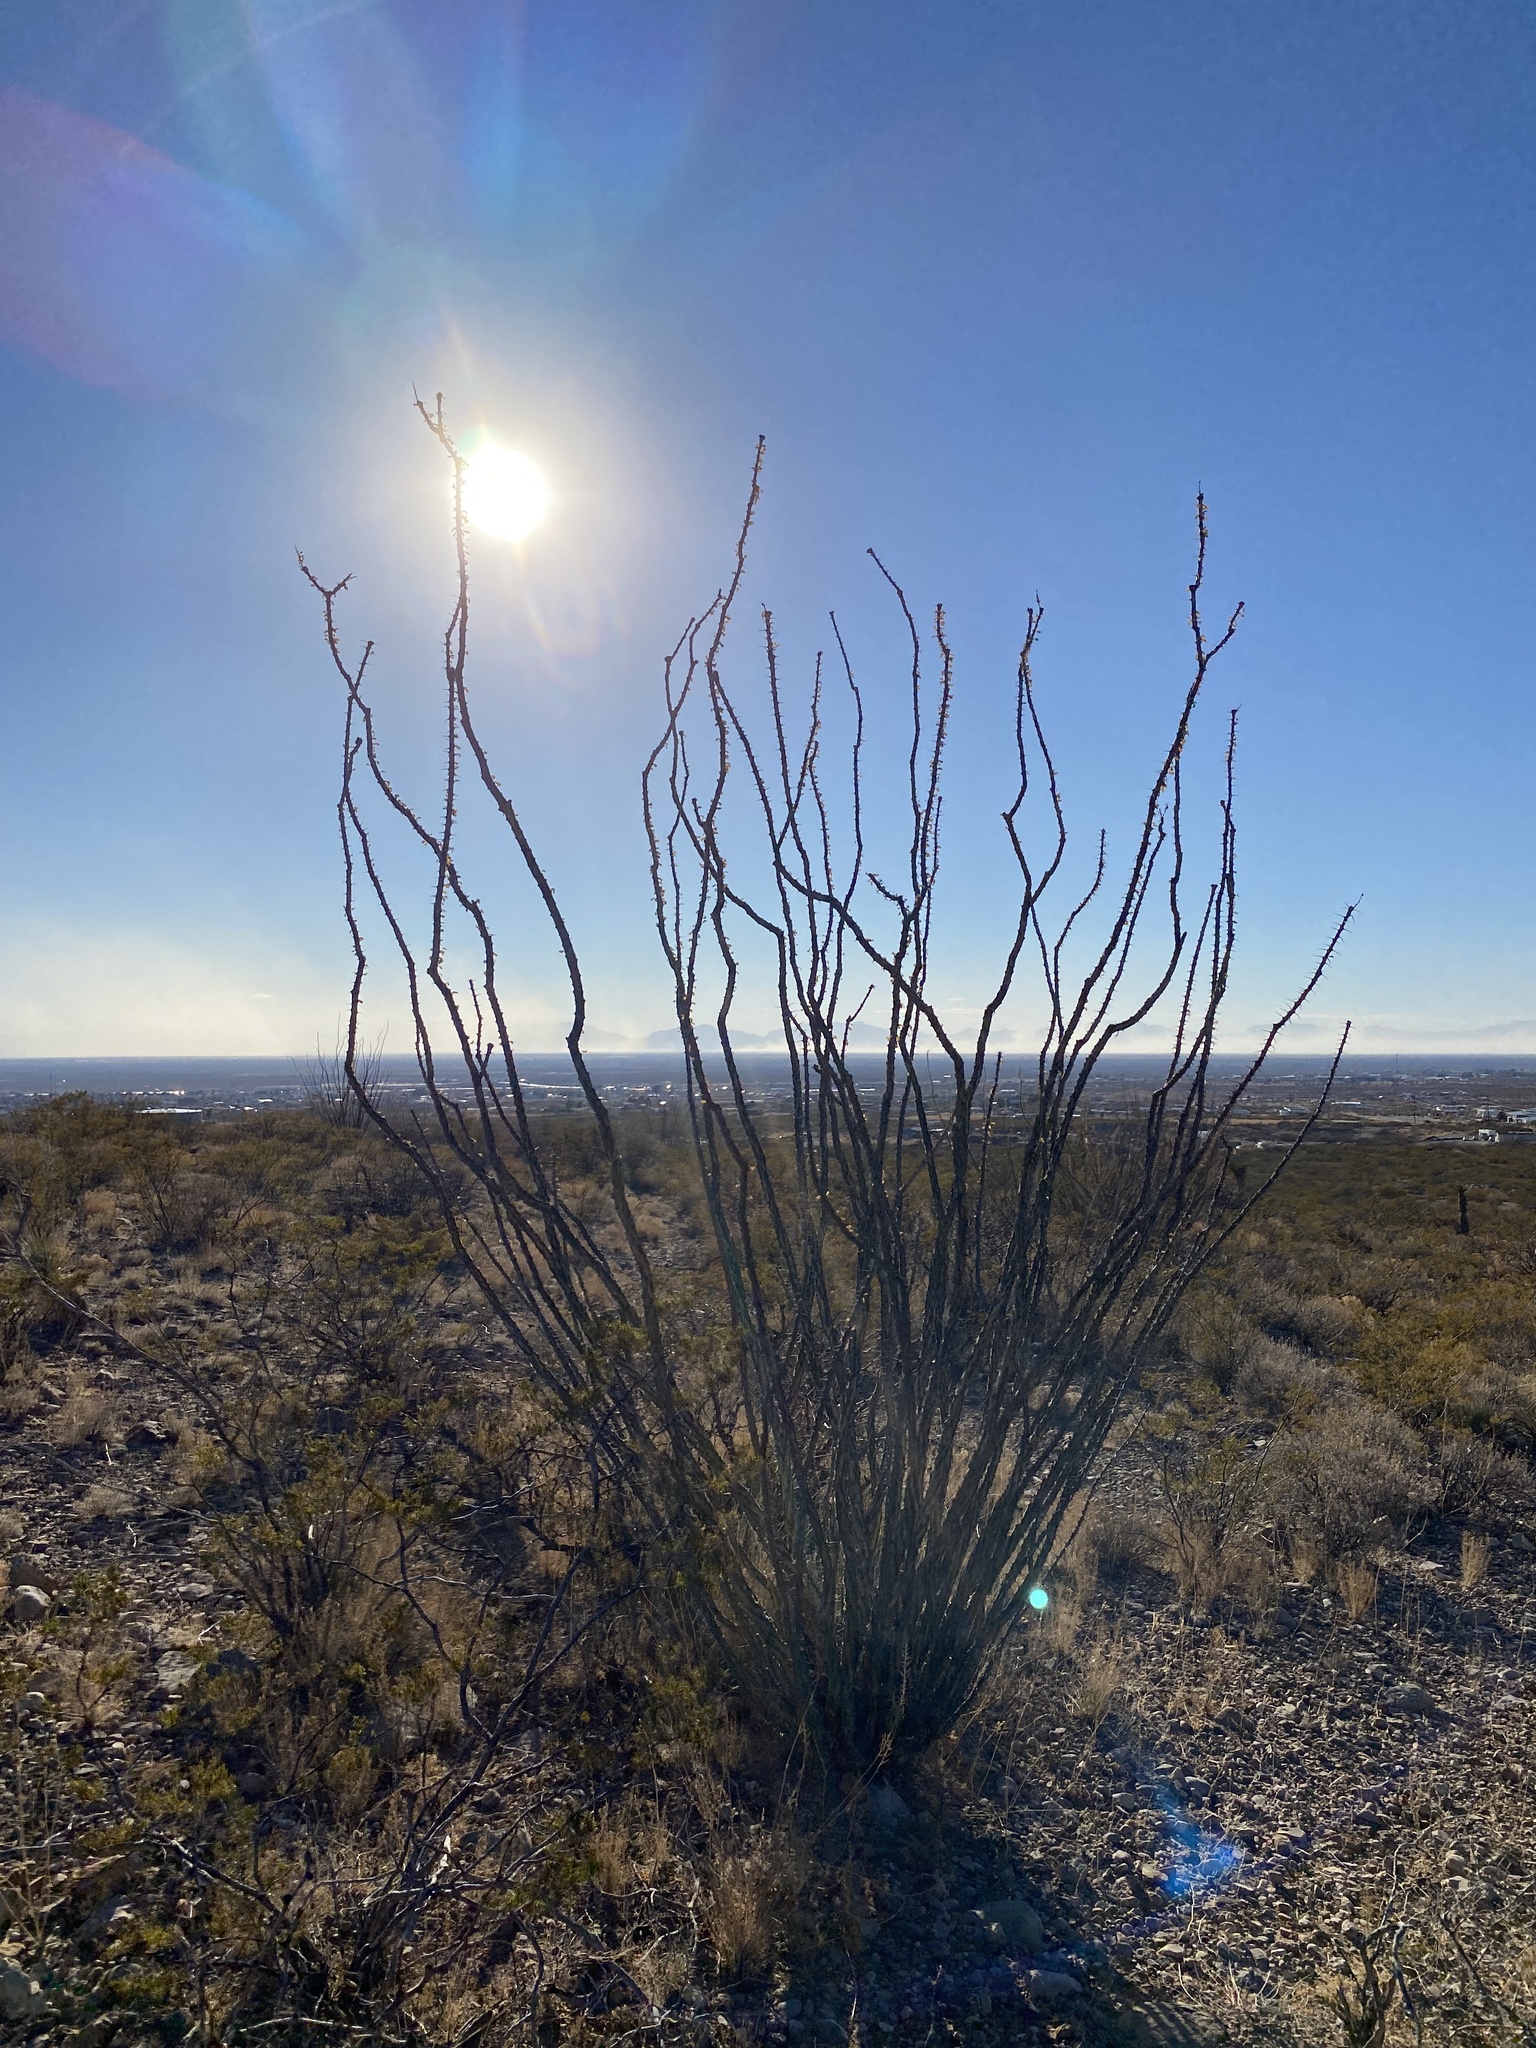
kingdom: Plantae
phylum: Tracheophyta
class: Magnoliopsida
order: Ericales
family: Fouquieriaceae
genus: Fouquieria
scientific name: Fouquieria splendens
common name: Vine-cactus
